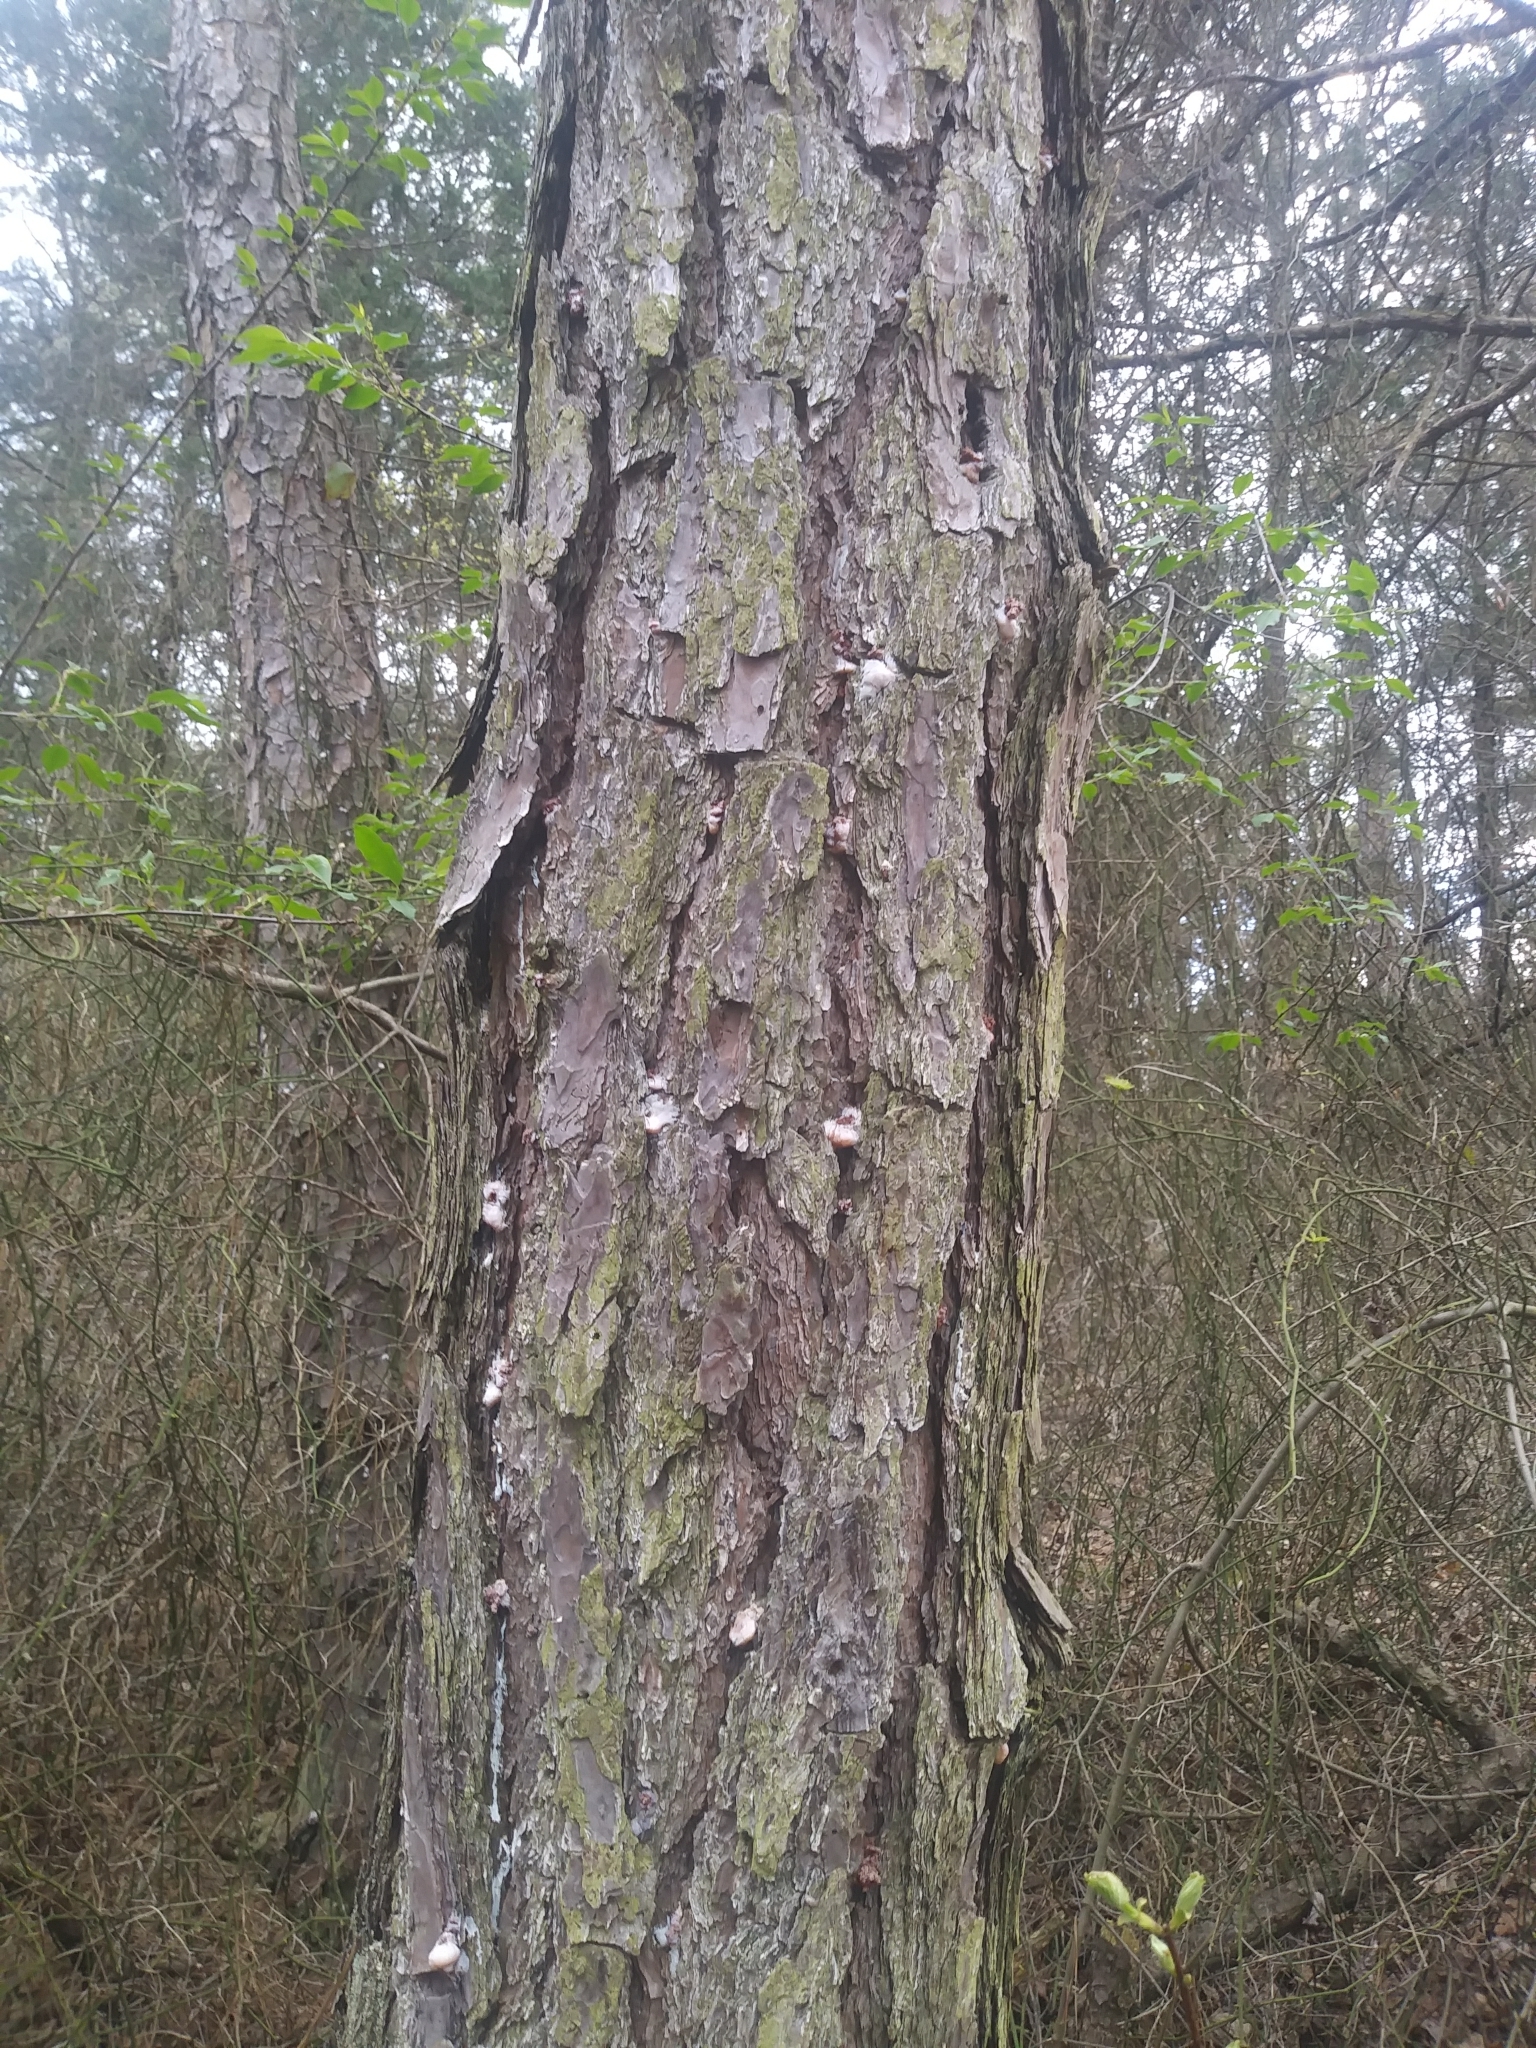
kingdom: Animalia
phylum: Arthropoda
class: Insecta
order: Coleoptera
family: Curculionidae
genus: Dendroctonus
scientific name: Dendroctonus frontalis
